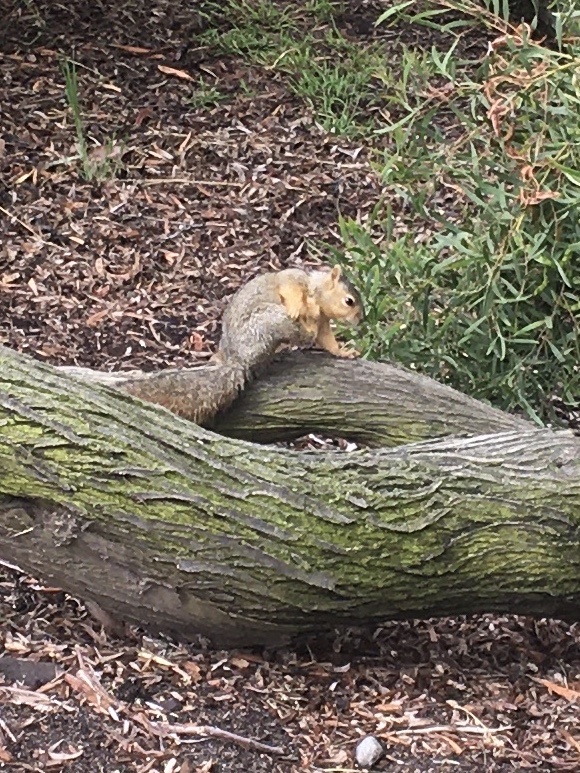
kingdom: Animalia
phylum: Chordata
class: Mammalia
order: Rodentia
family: Sciuridae
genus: Sciurus
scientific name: Sciurus niger
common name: Fox squirrel
